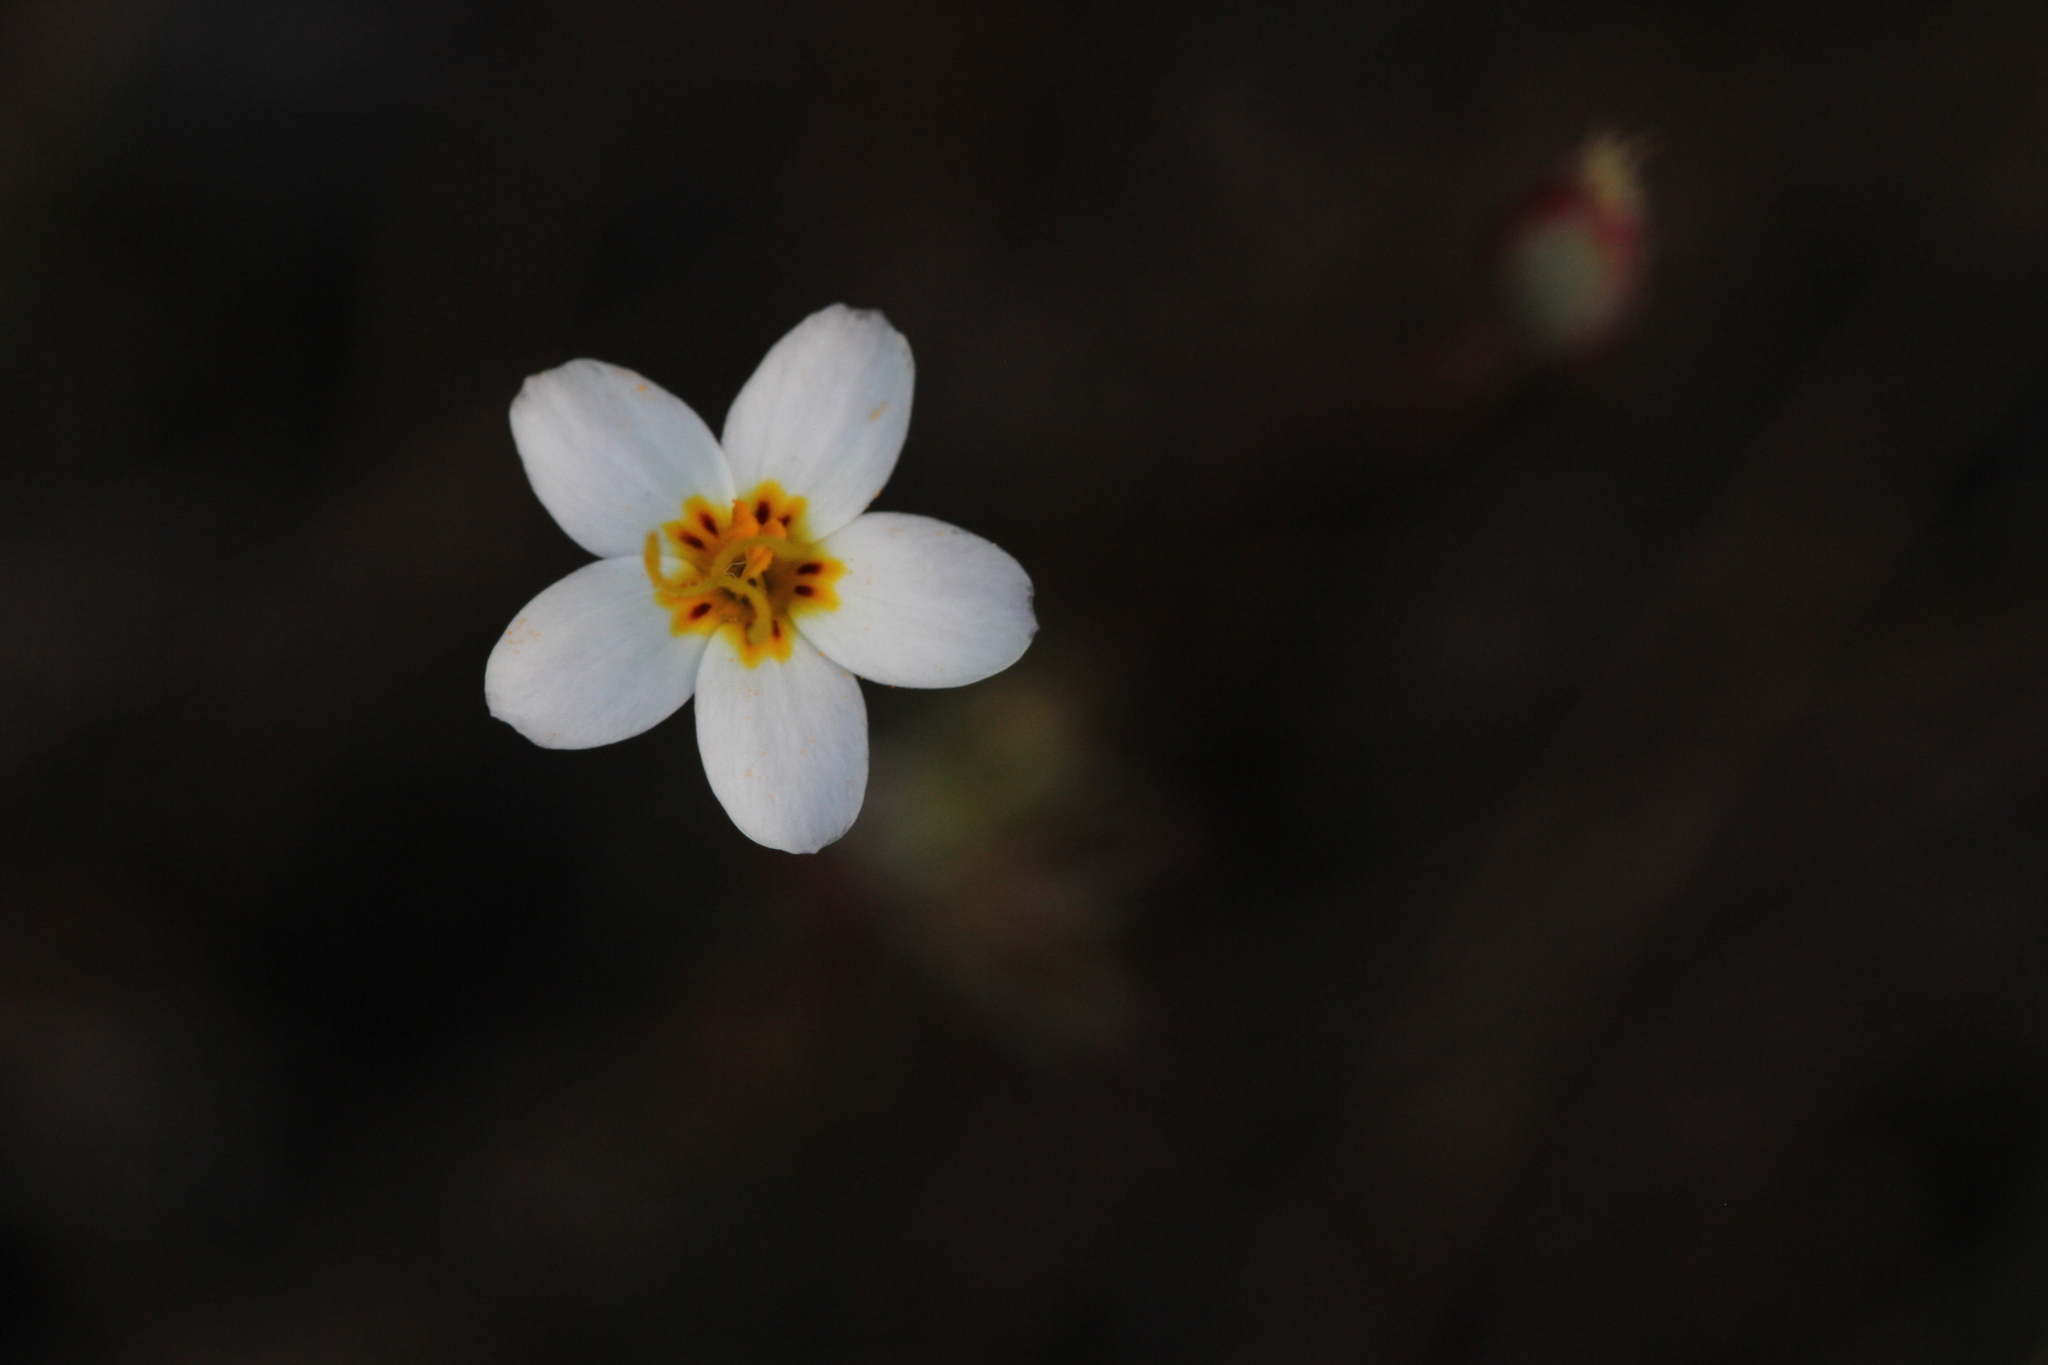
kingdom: Plantae
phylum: Tracheophyta
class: Magnoliopsida
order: Ericales
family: Polemoniaceae
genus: Leptosiphon
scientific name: Leptosiphon parviflorus
